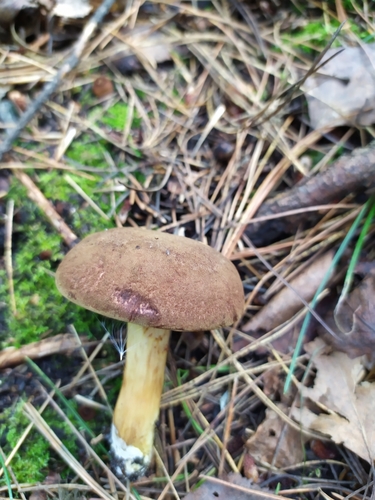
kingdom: Fungi
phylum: Basidiomycota
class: Agaricomycetes
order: Boletales
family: Boletaceae
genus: Xerocomus
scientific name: Xerocomus subtomentosus
